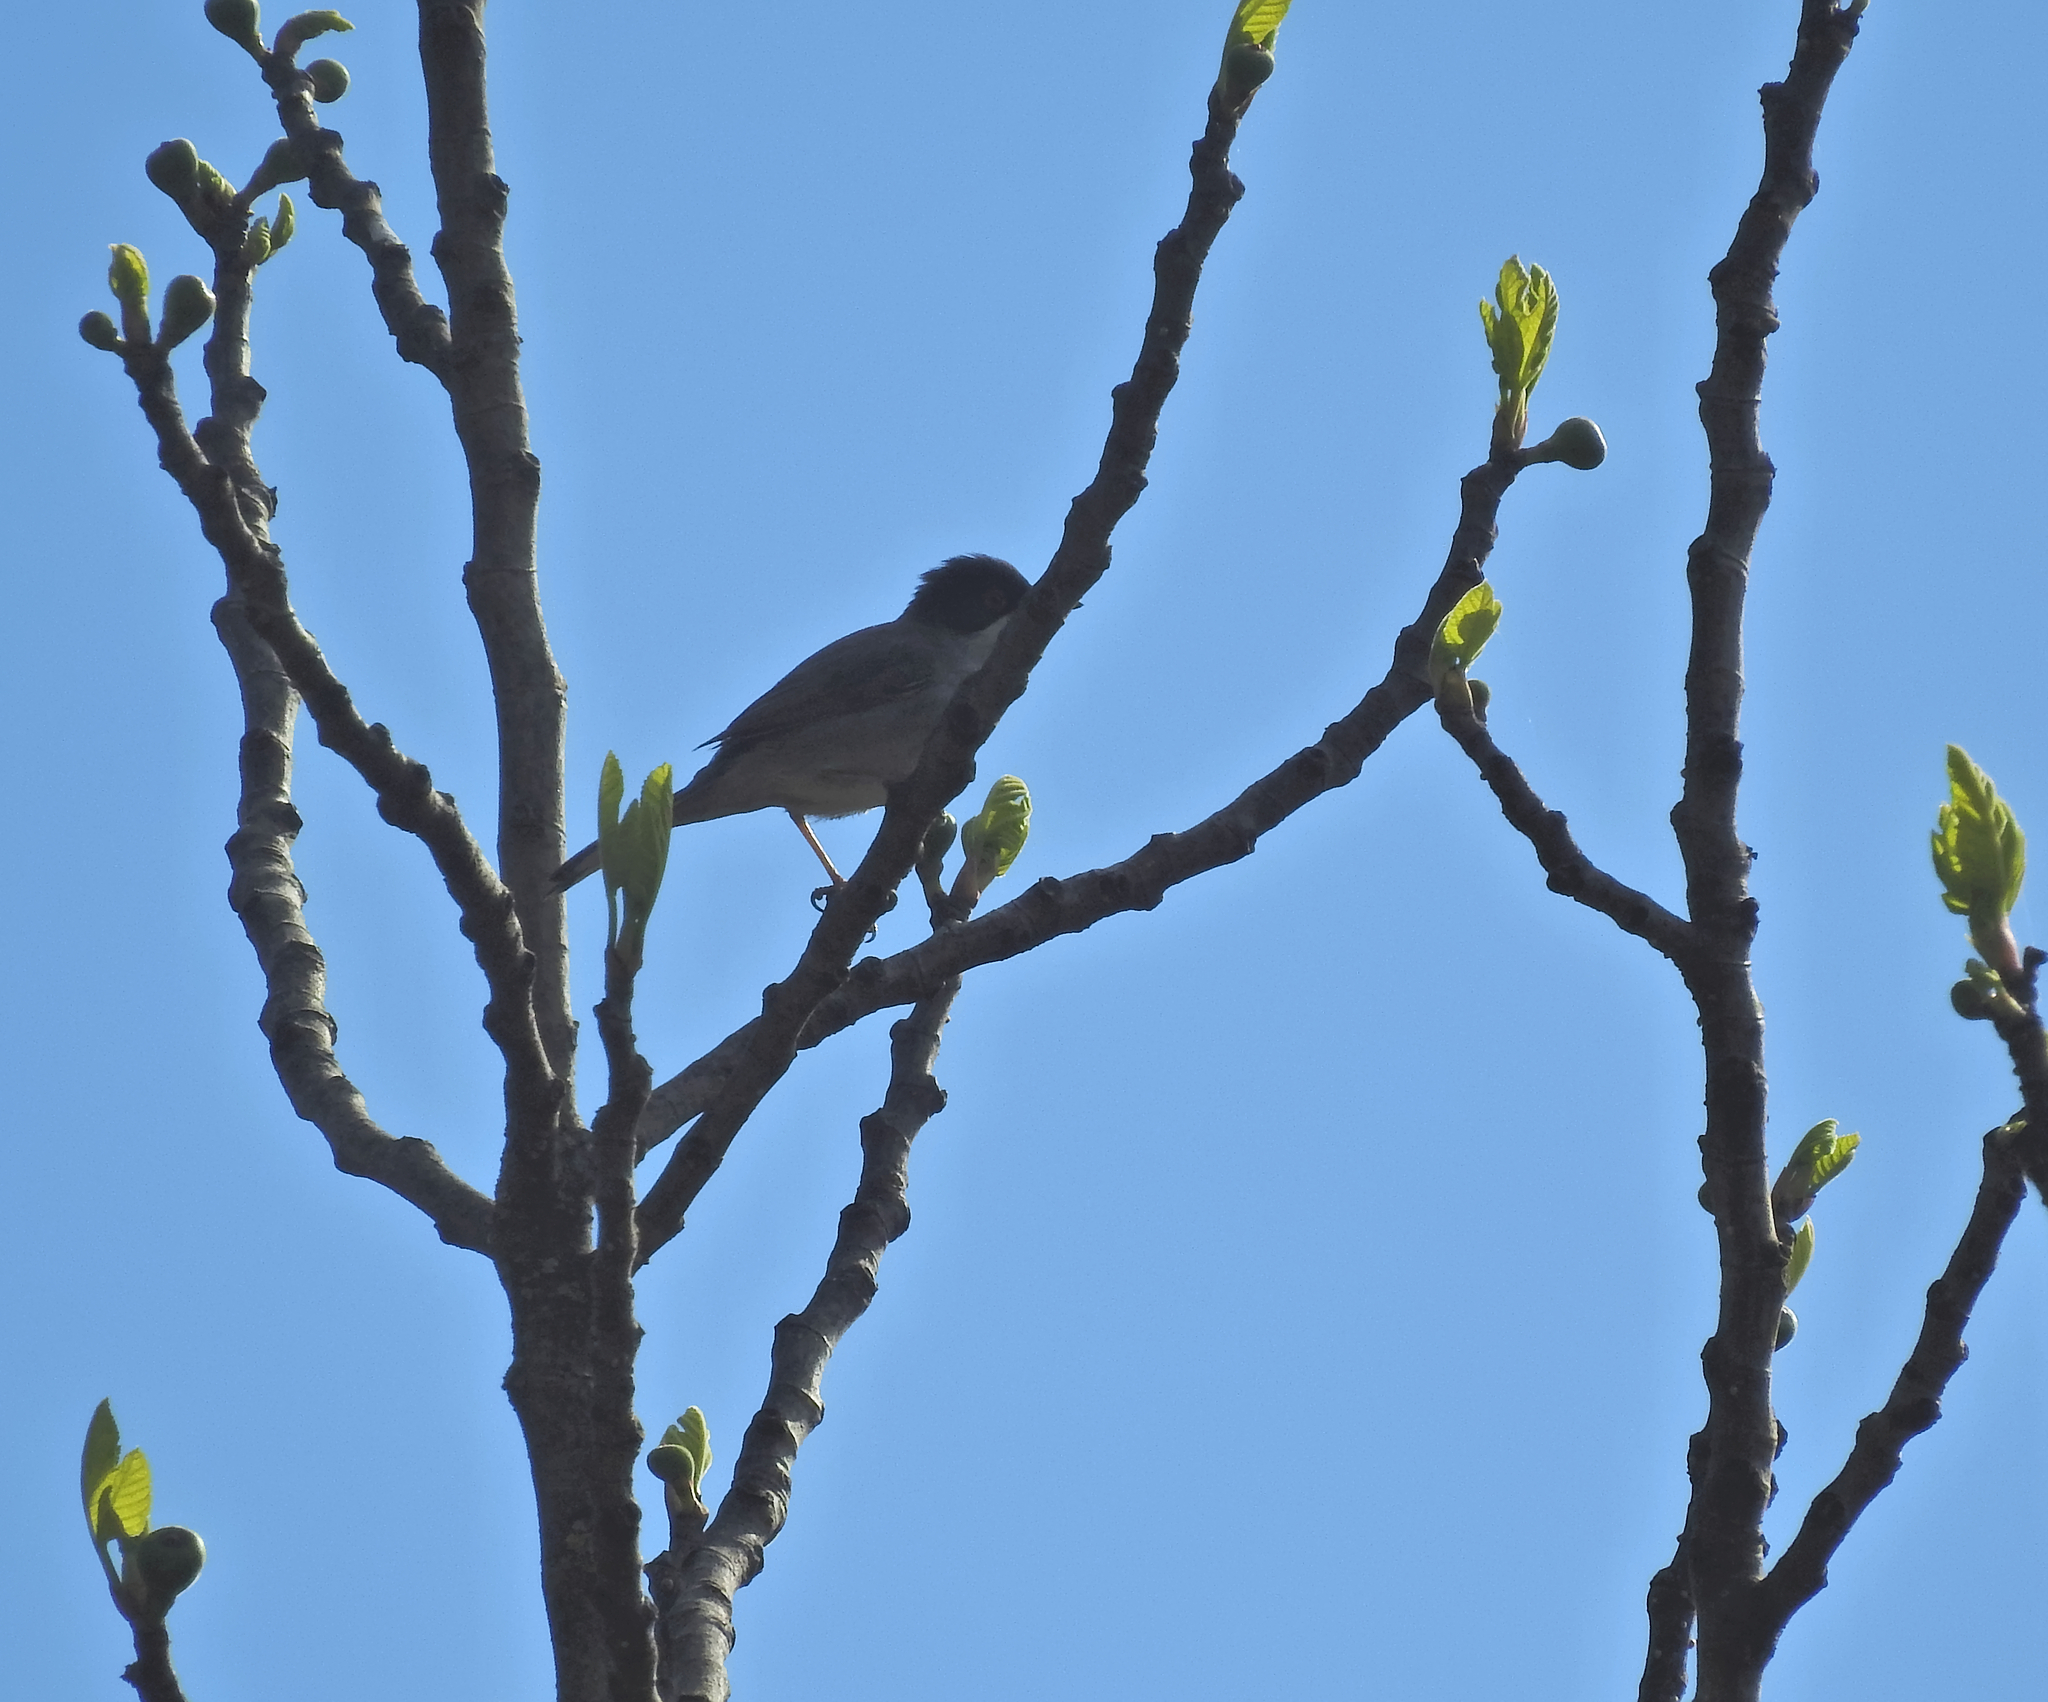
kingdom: Animalia
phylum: Chordata
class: Aves
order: Passeriformes
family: Sylviidae
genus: Curruca
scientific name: Curruca melanocephala
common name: Sardinian warbler
